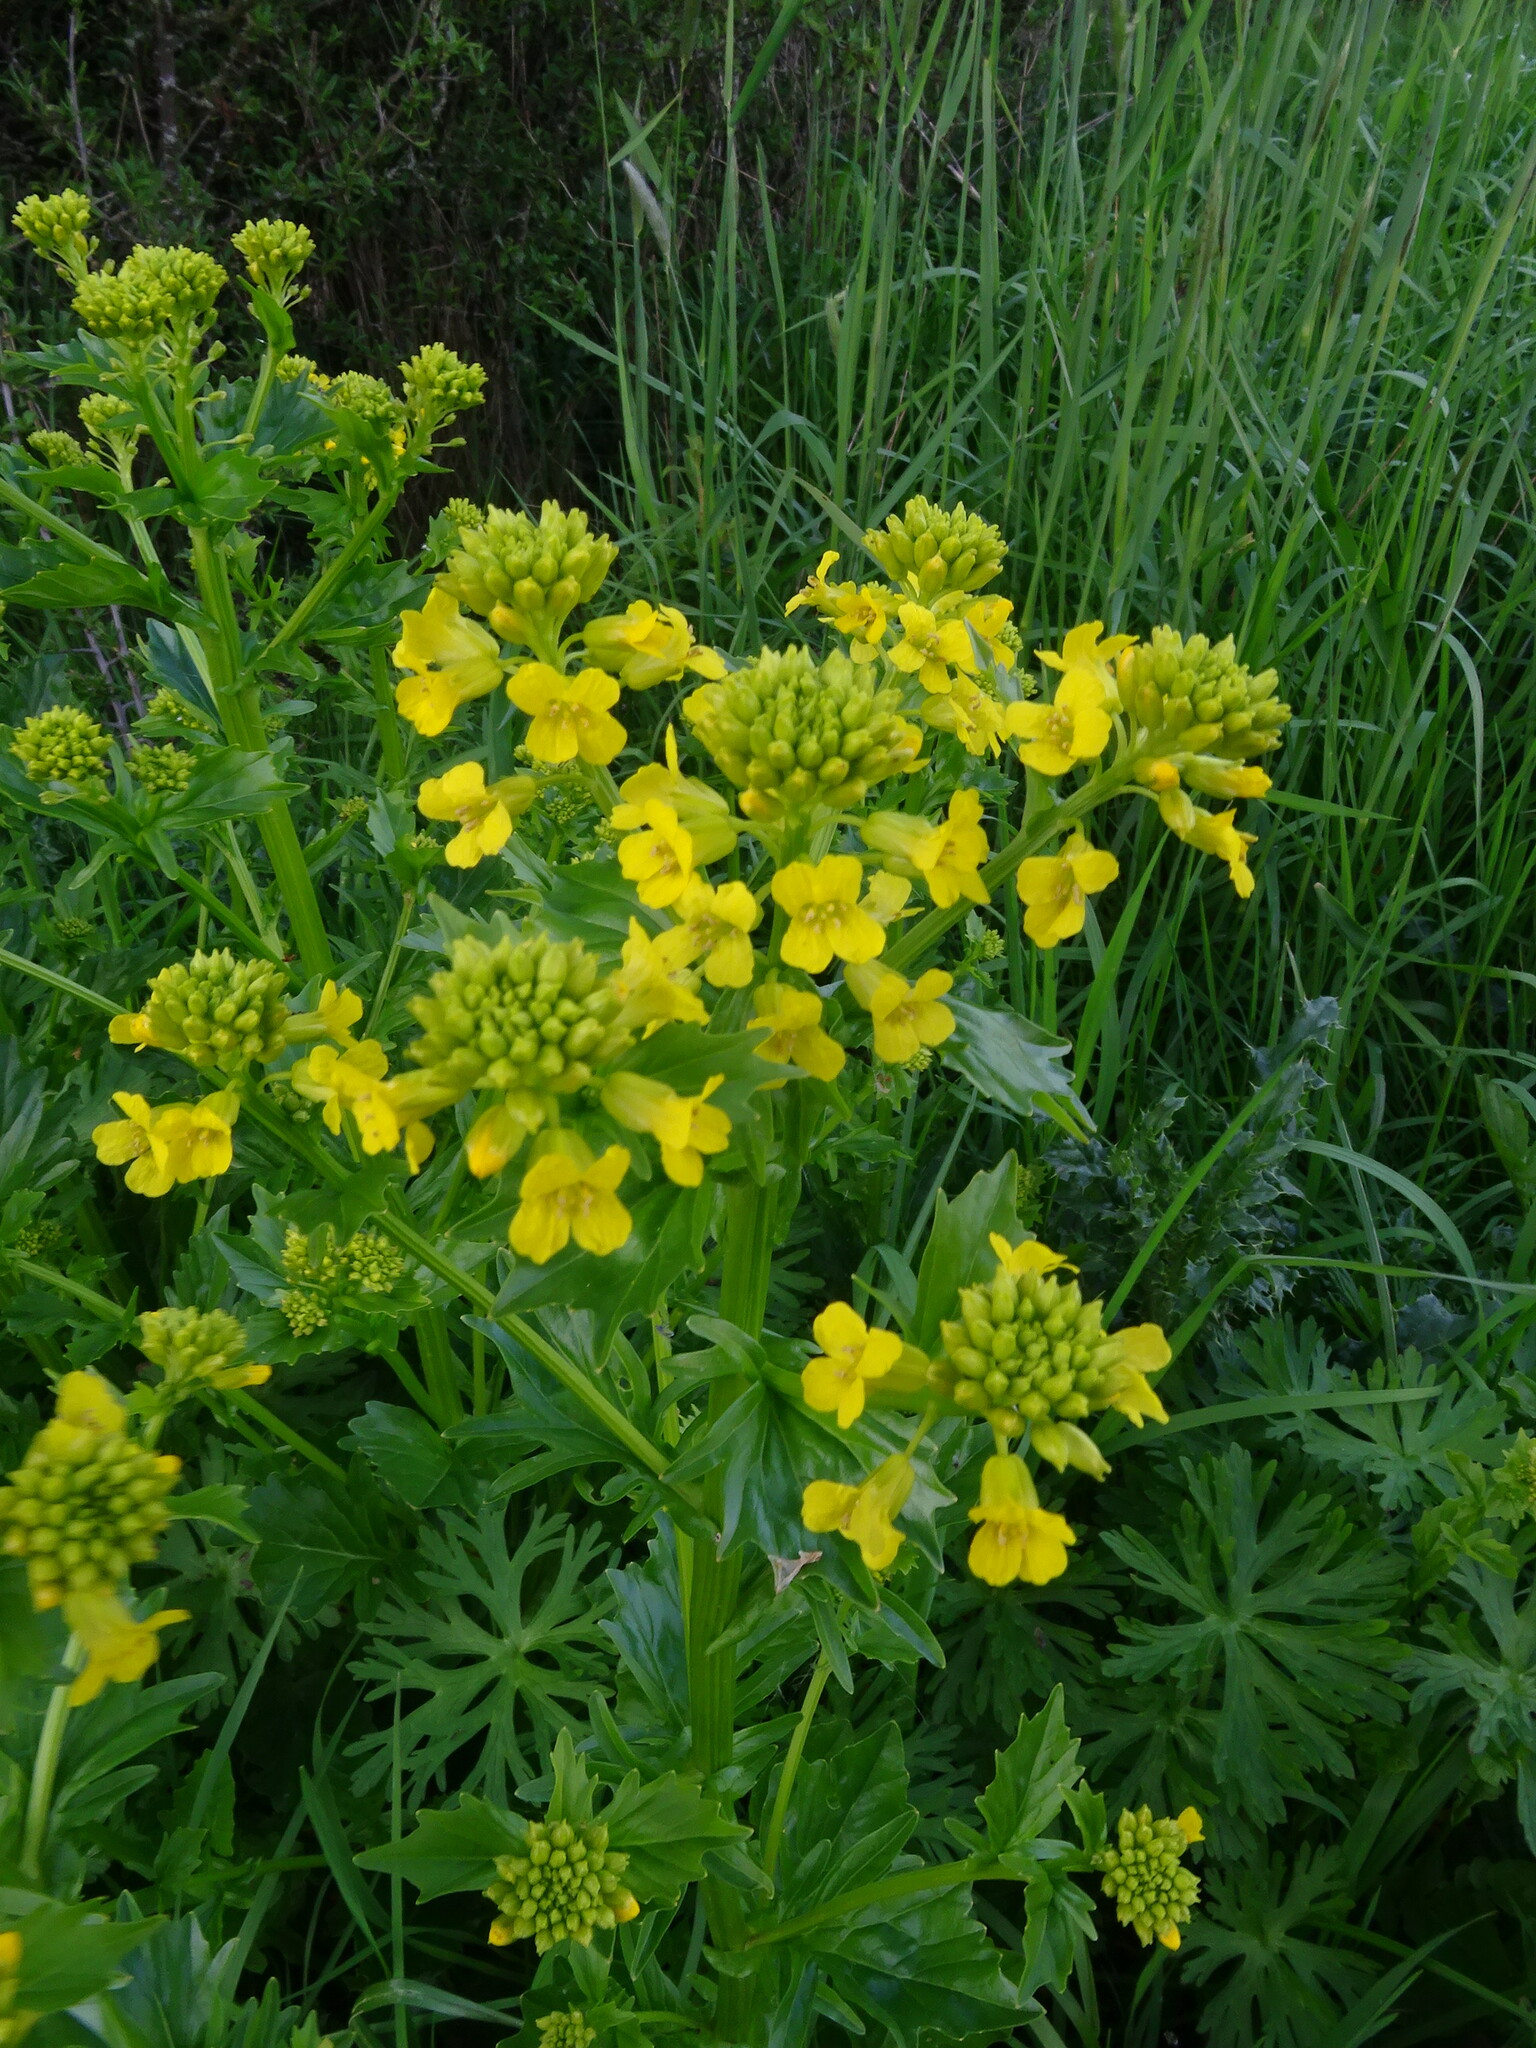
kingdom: Plantae
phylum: Tracheophyta
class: Magnoliopsida
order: Brassicales
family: Brassicaceae
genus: Barbarea
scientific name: Barbarea vulgaris
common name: Cressy-greens
